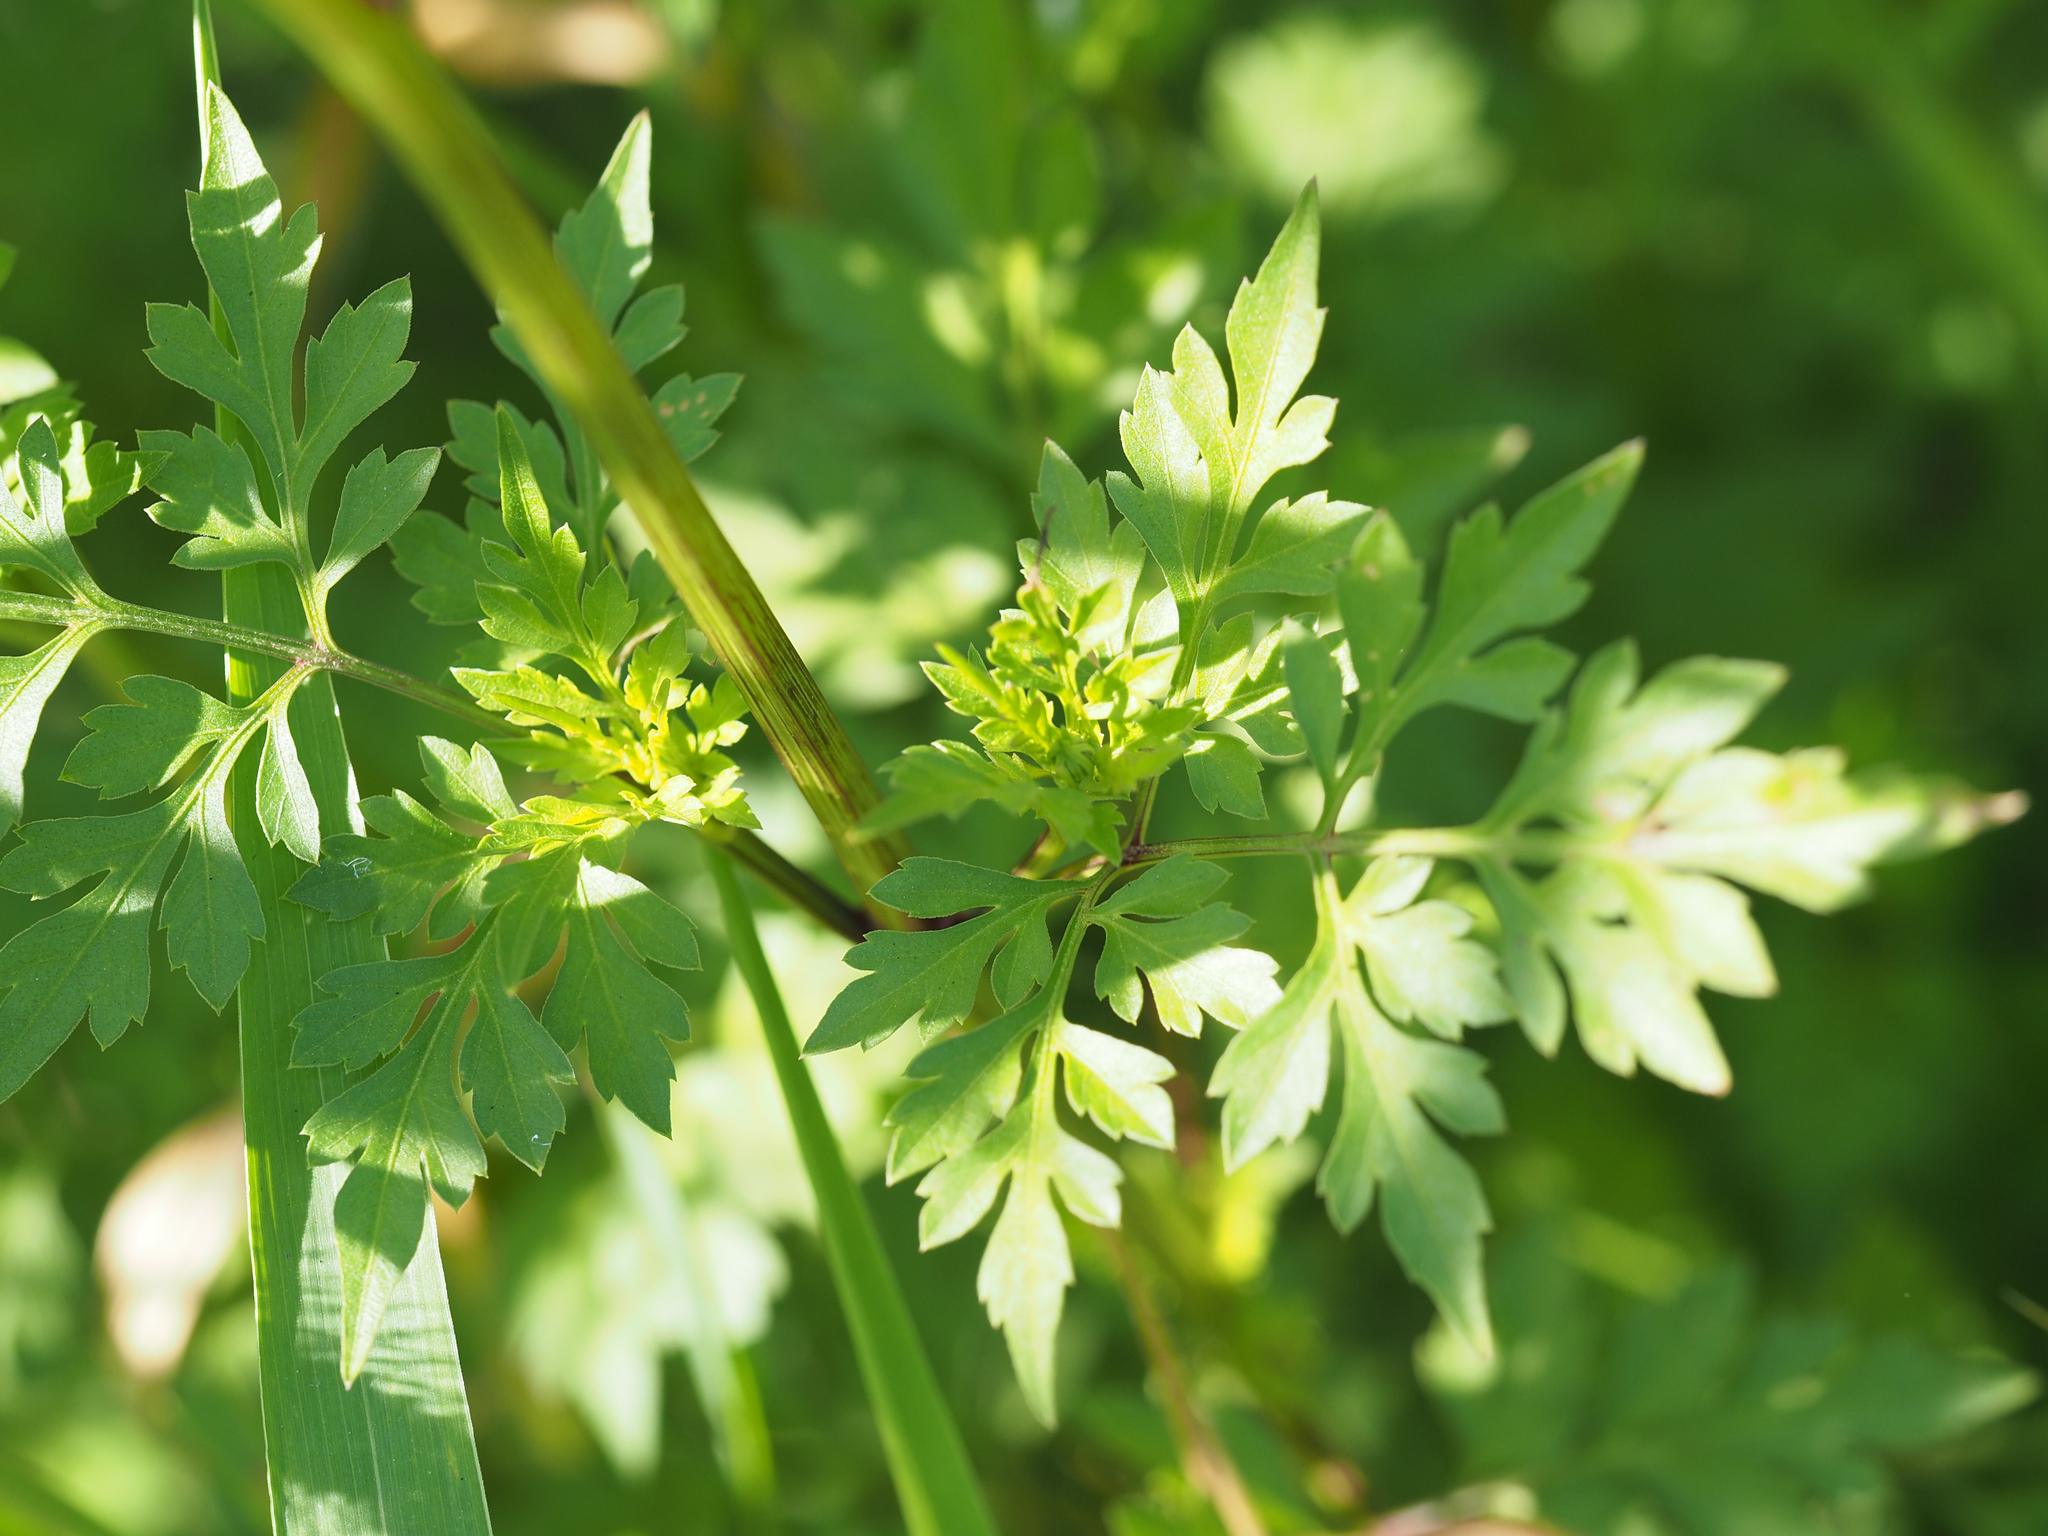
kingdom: Plantae
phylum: Tracheophyta
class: Magnoliopsida
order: Asterales
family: Asteraceae
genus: Bidens
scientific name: Bidens bipinnata
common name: Spanish-needles
